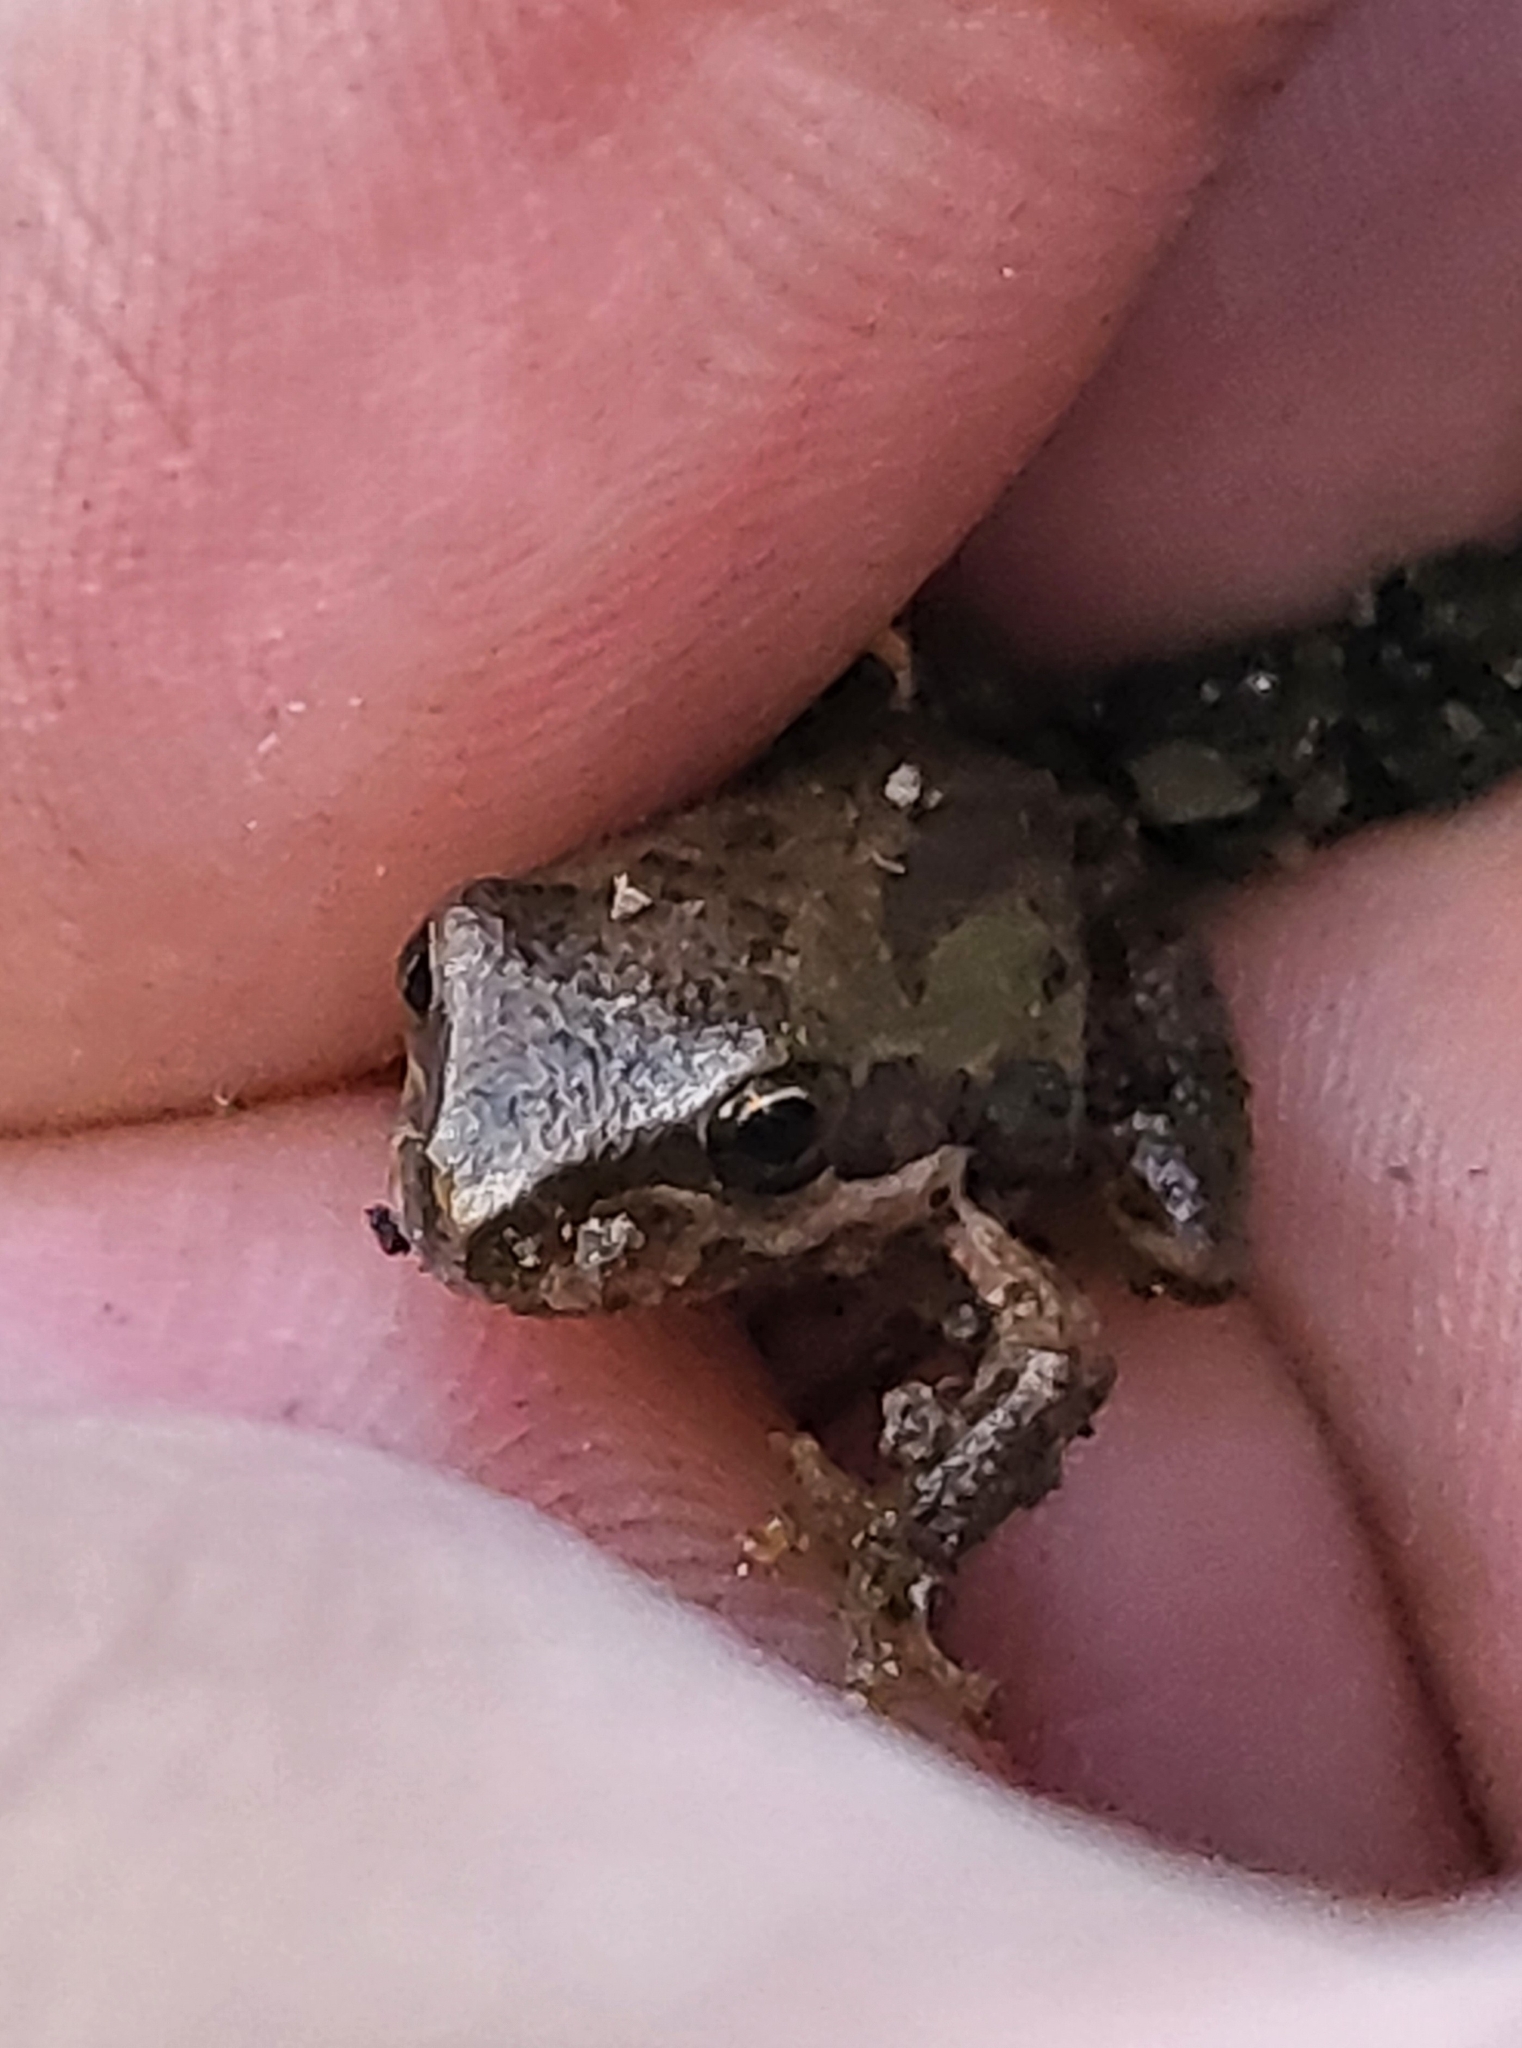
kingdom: Animalia
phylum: Chordata
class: Amphibia
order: Anura
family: Hylidae
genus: Pseudacris
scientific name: Pseudacris regilla
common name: Pacific chorus frog
